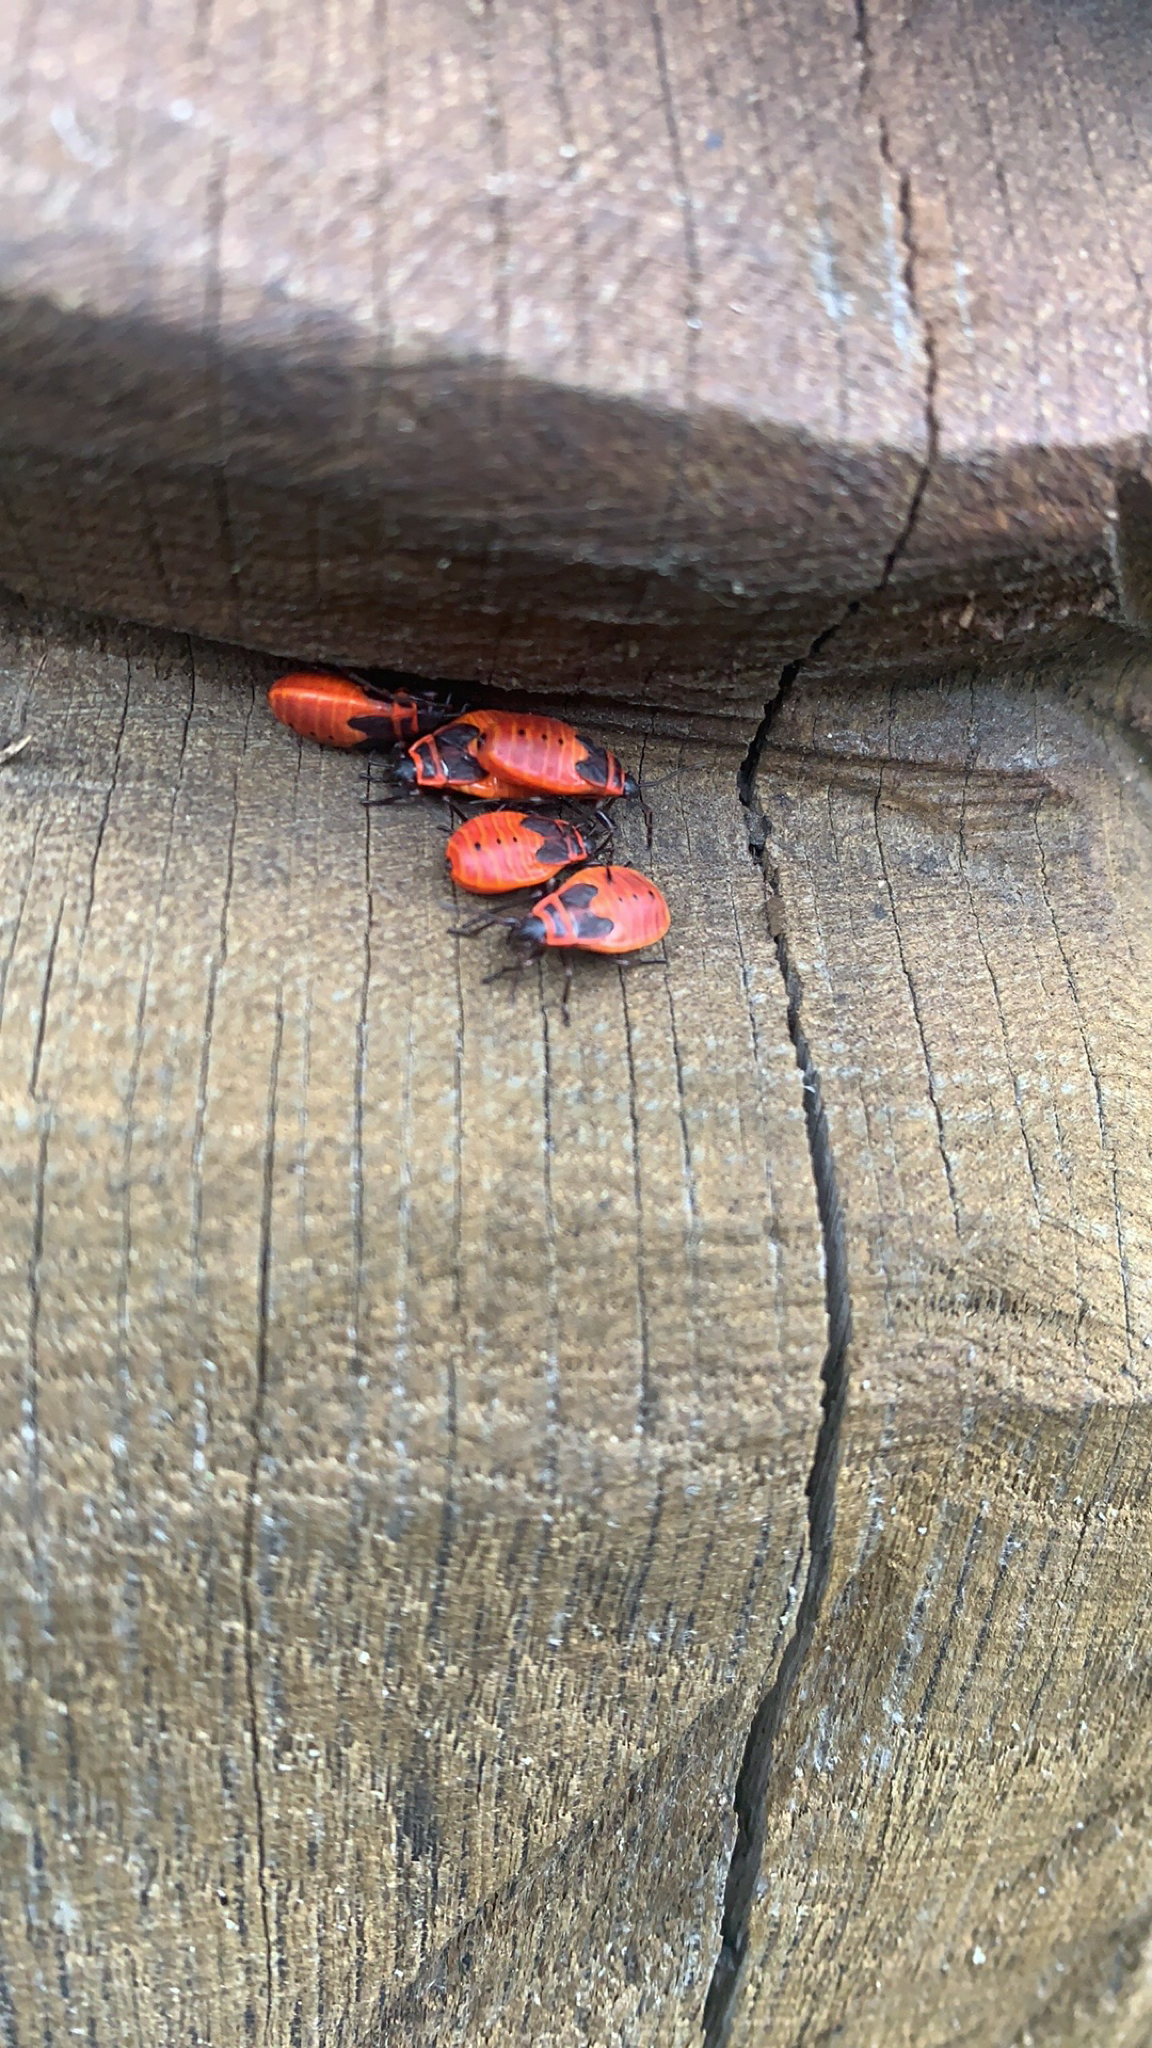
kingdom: Animalia
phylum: Arthropoda
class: Insecta
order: Hemiptera
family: Pyrrhocoridae
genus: Pyrrhocoris
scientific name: Pyrrhocoris apterus
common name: Firebug
